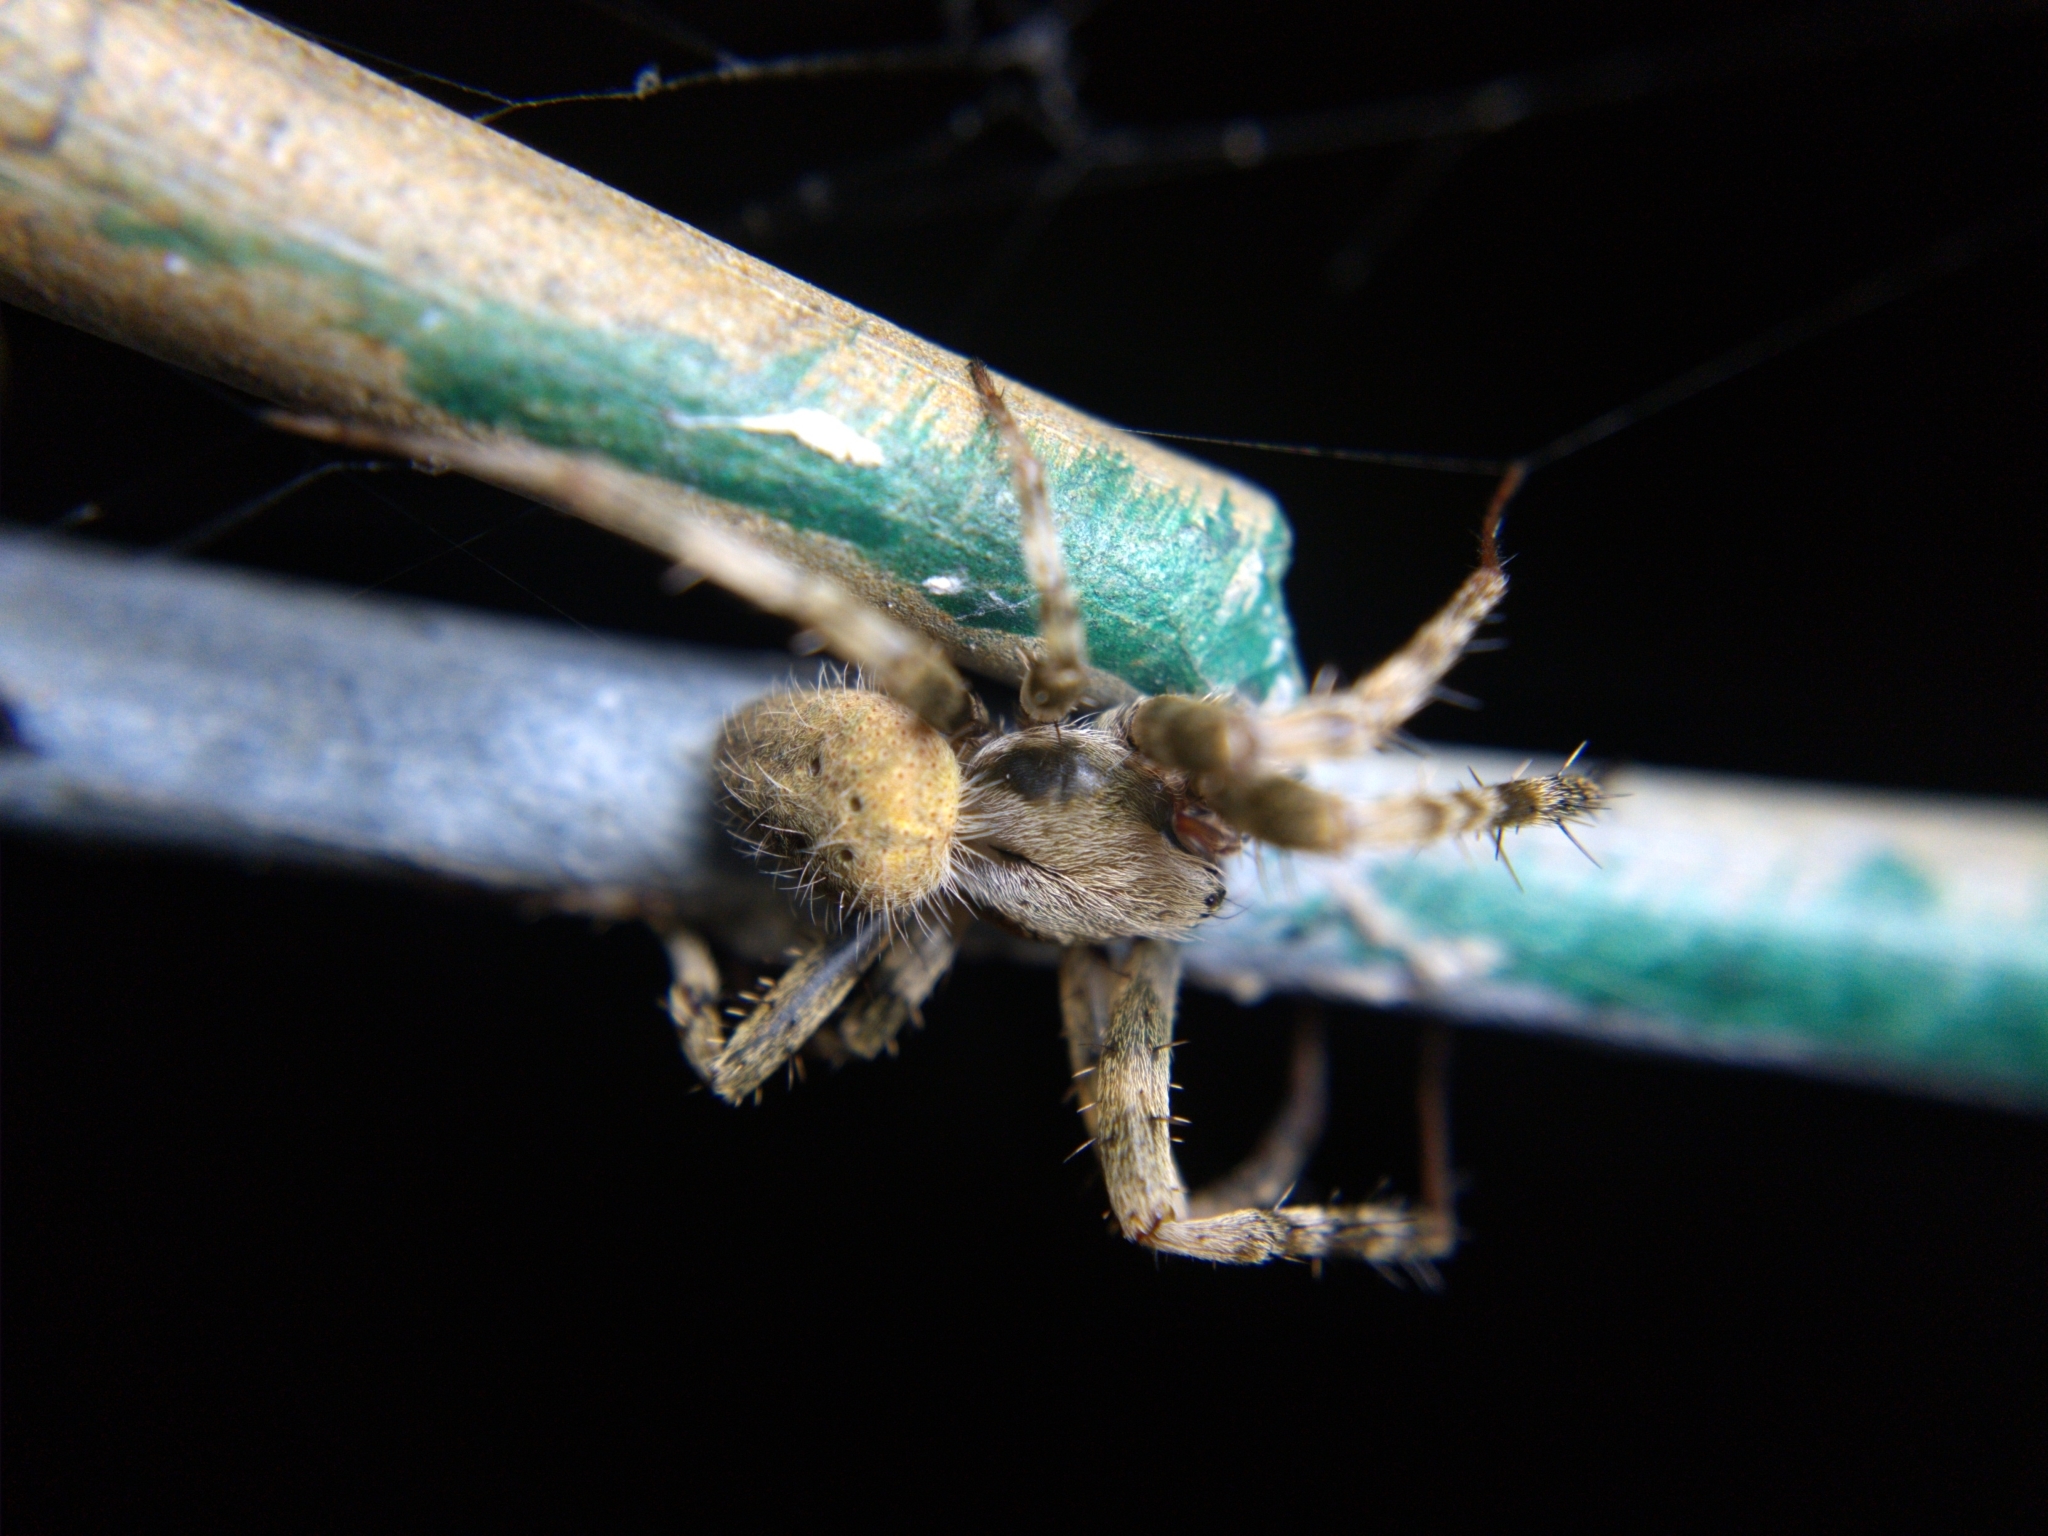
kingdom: Animalia
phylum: Arthropoda
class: Arachnida
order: Araneae
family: Araneidae
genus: Neoscona
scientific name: Neoscona crucifera
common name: Spotted orbweaver
